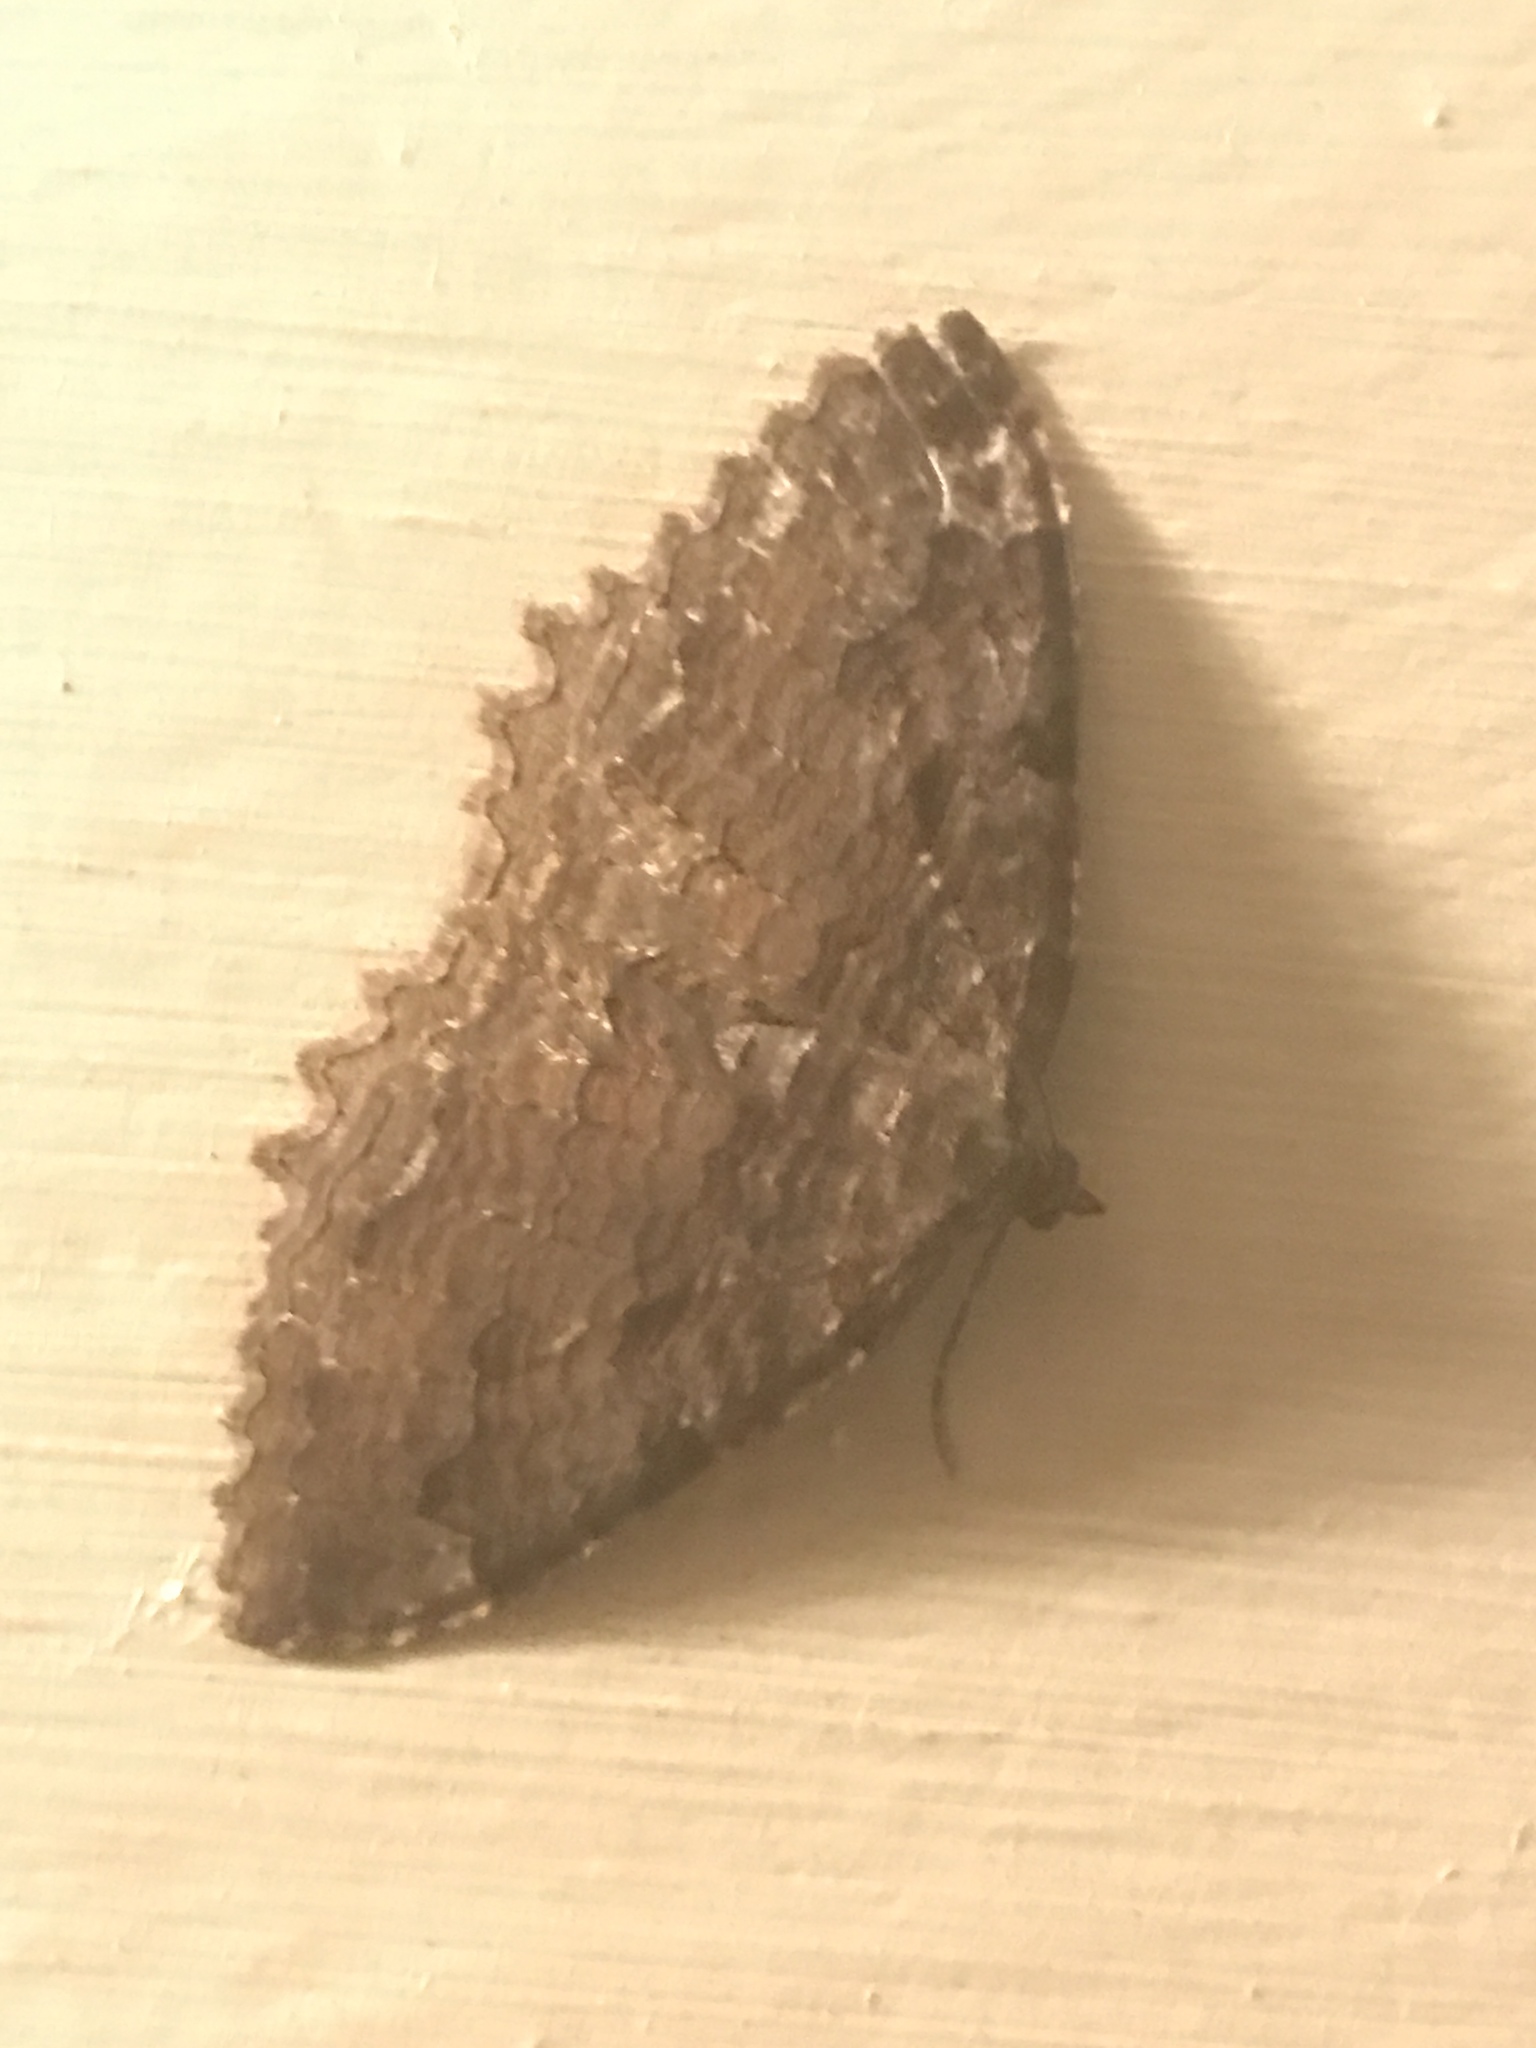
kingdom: Animalia
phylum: Arthropoda
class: Insecta
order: Lepidoptera
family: Geometridae
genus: Triphosa
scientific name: Triphosa haesitata
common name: Tissue moth
